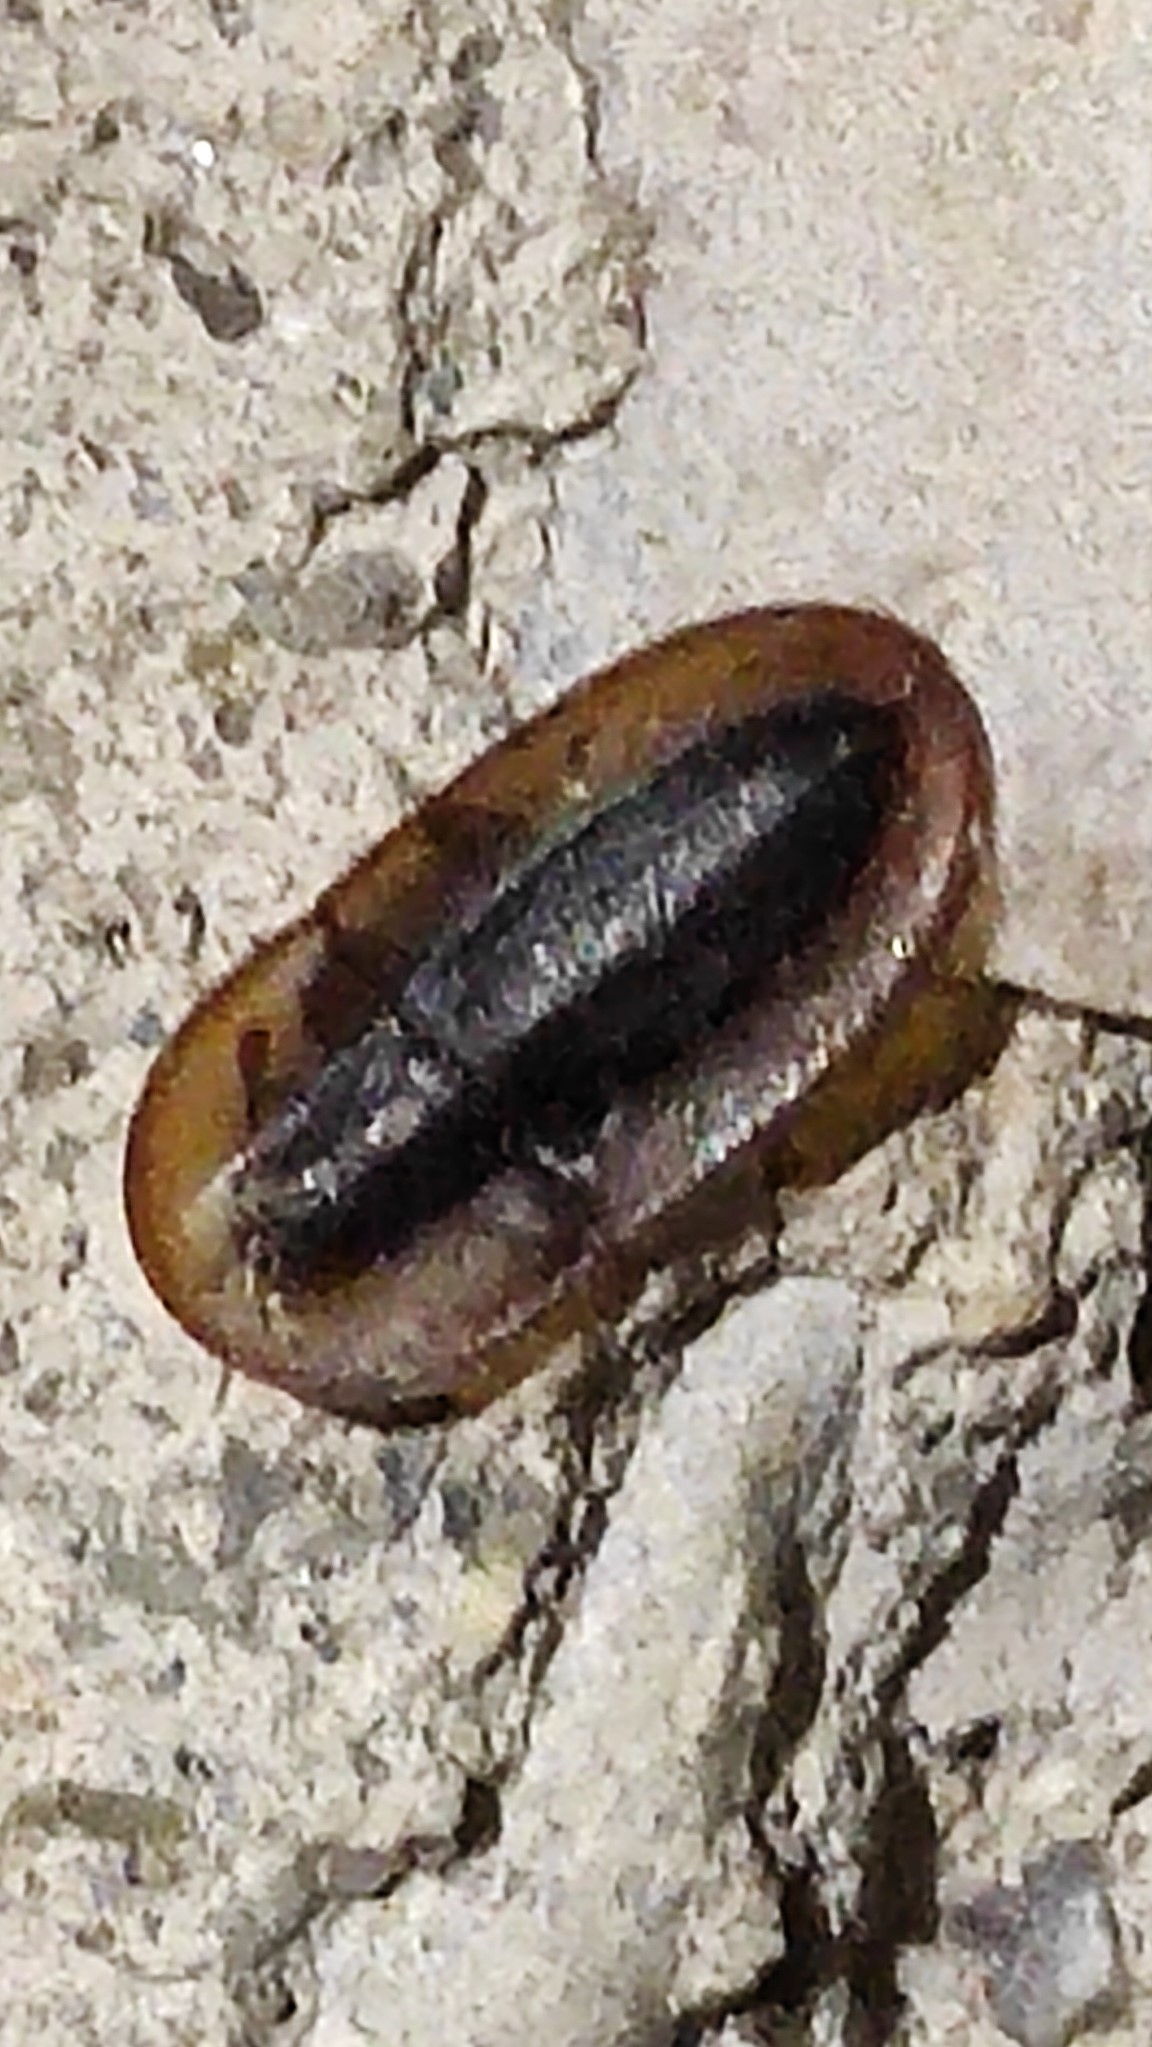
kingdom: Animalia
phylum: Arthropoda
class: Insecta
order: Coleoptera
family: Tenebrionidae
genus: Cossyphus
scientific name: Cossyphus hoffmannseggi
